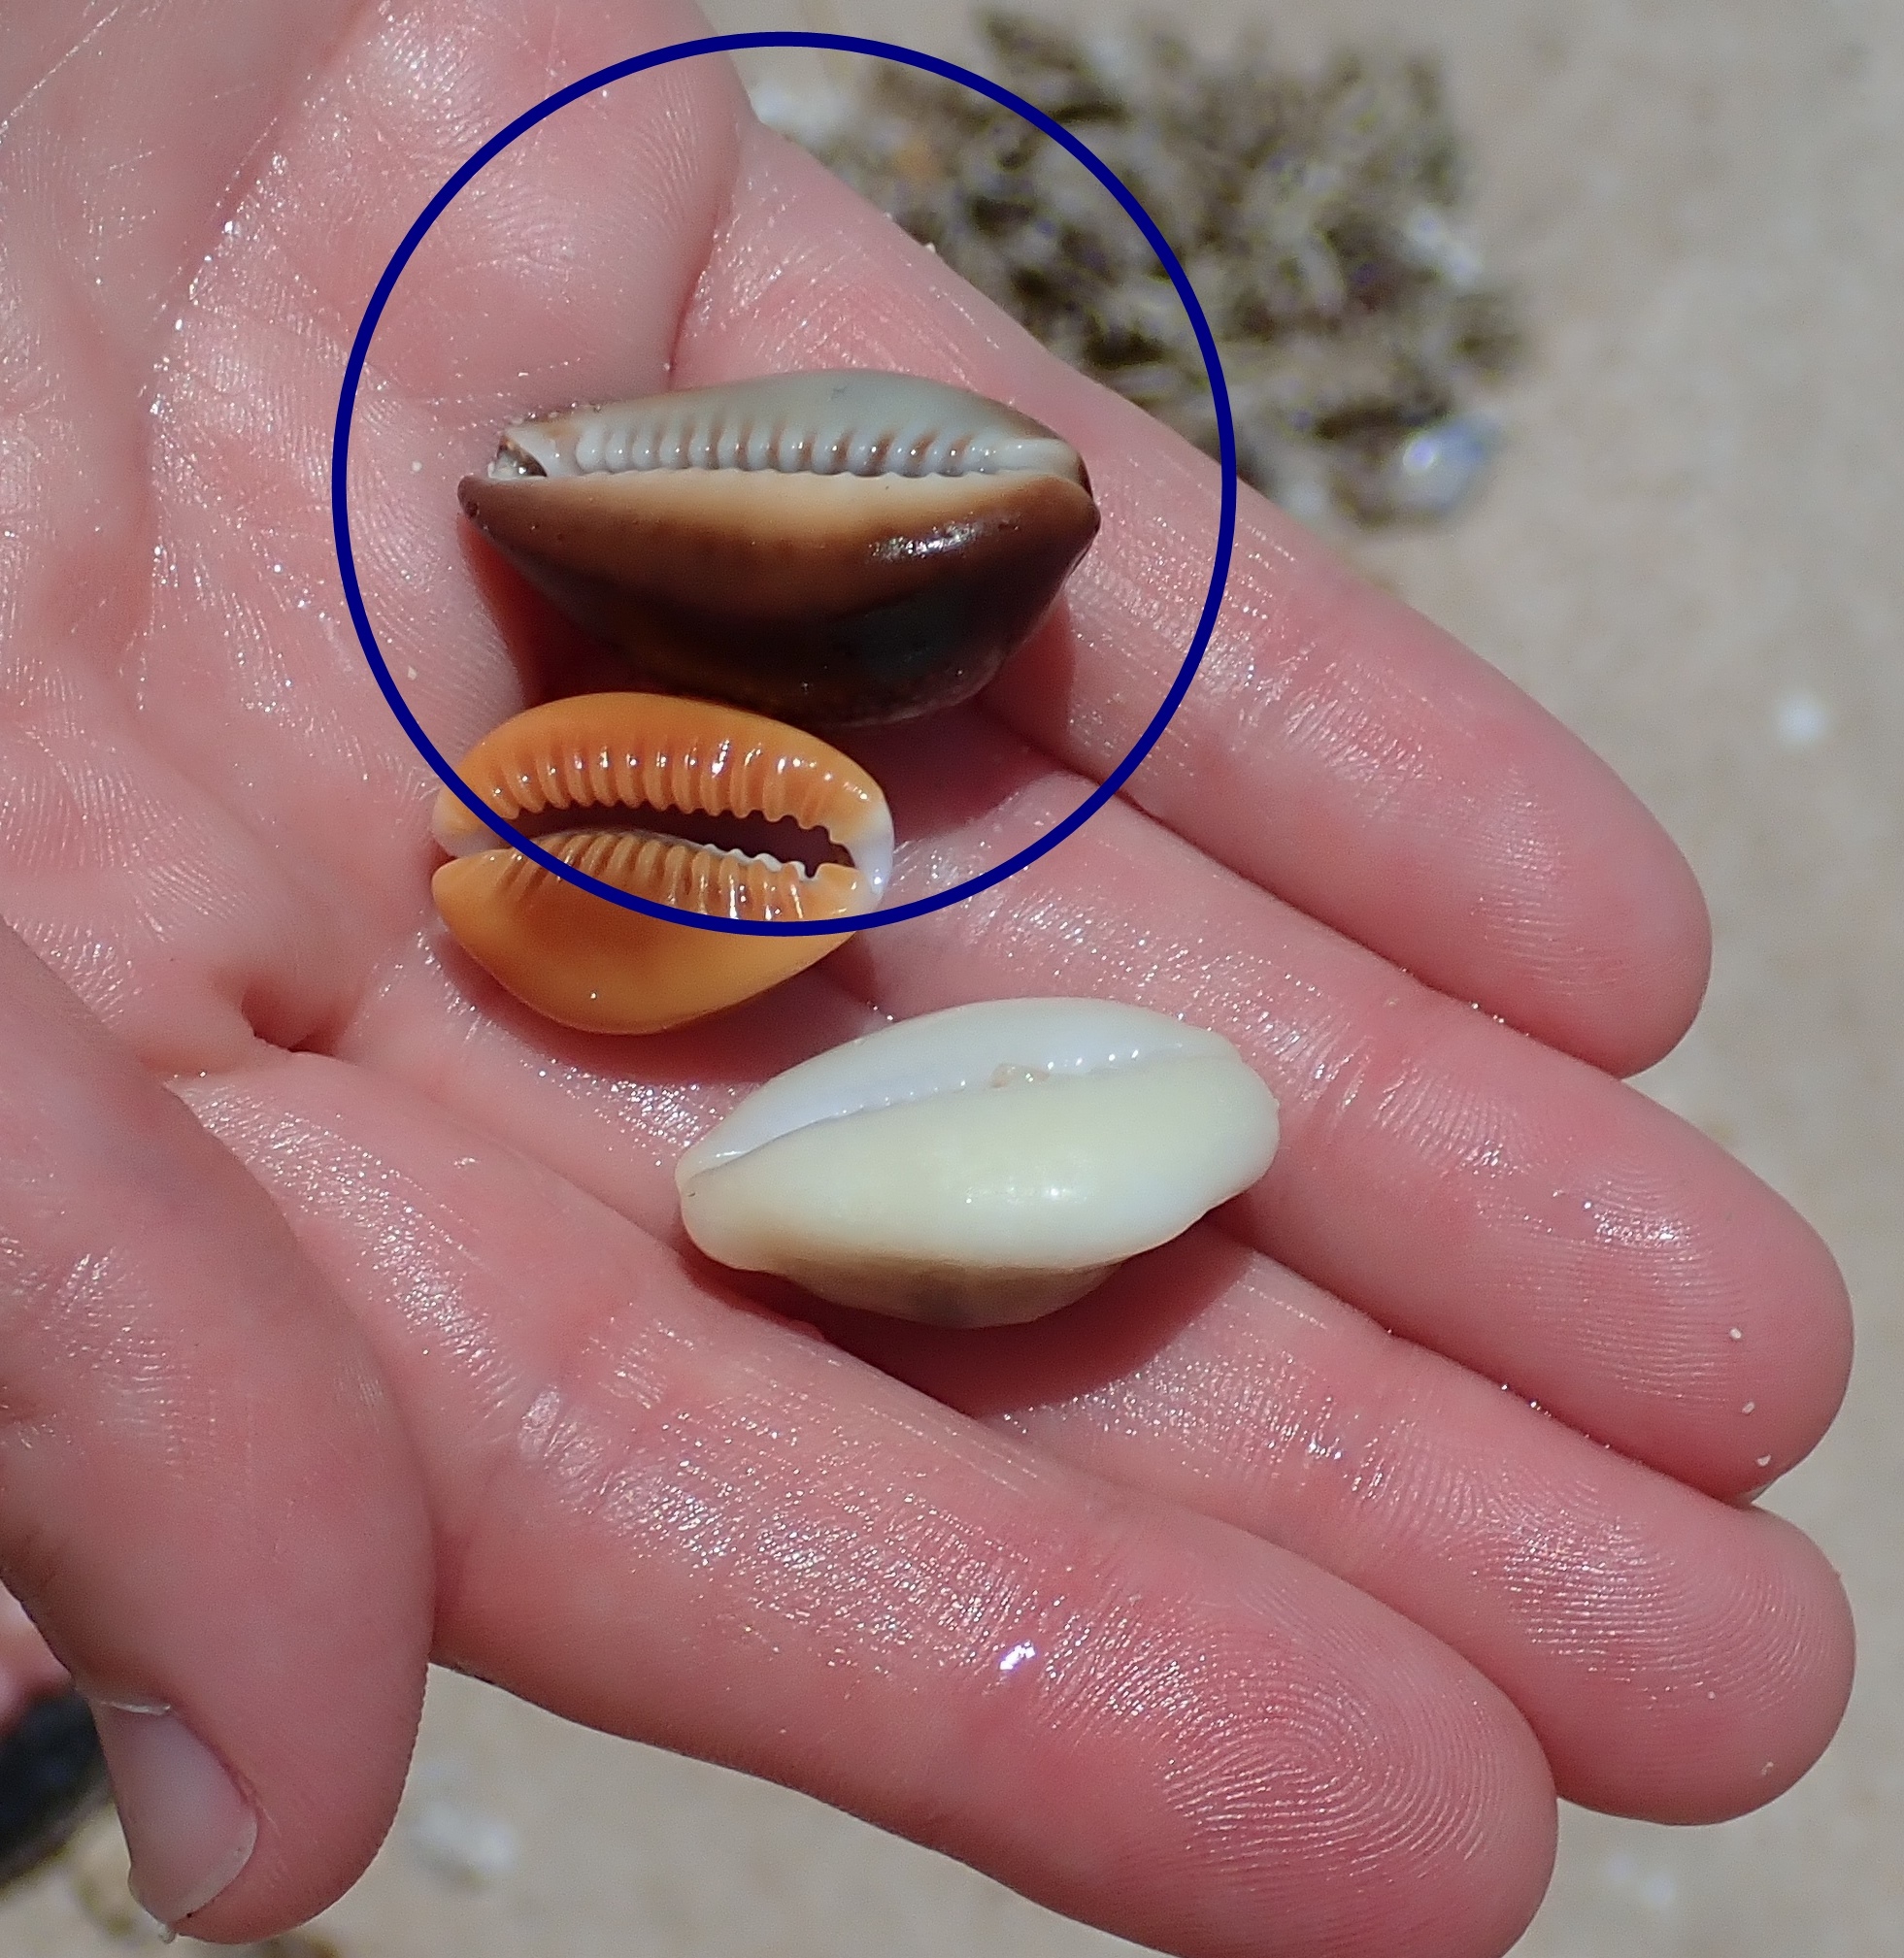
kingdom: Animalia
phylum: Mollusca
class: Gastropoda
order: Littorinimorpha
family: Cypraeidae
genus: Monetaria
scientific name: Monetaria caputserpentis
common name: Serpent's head cowrie
